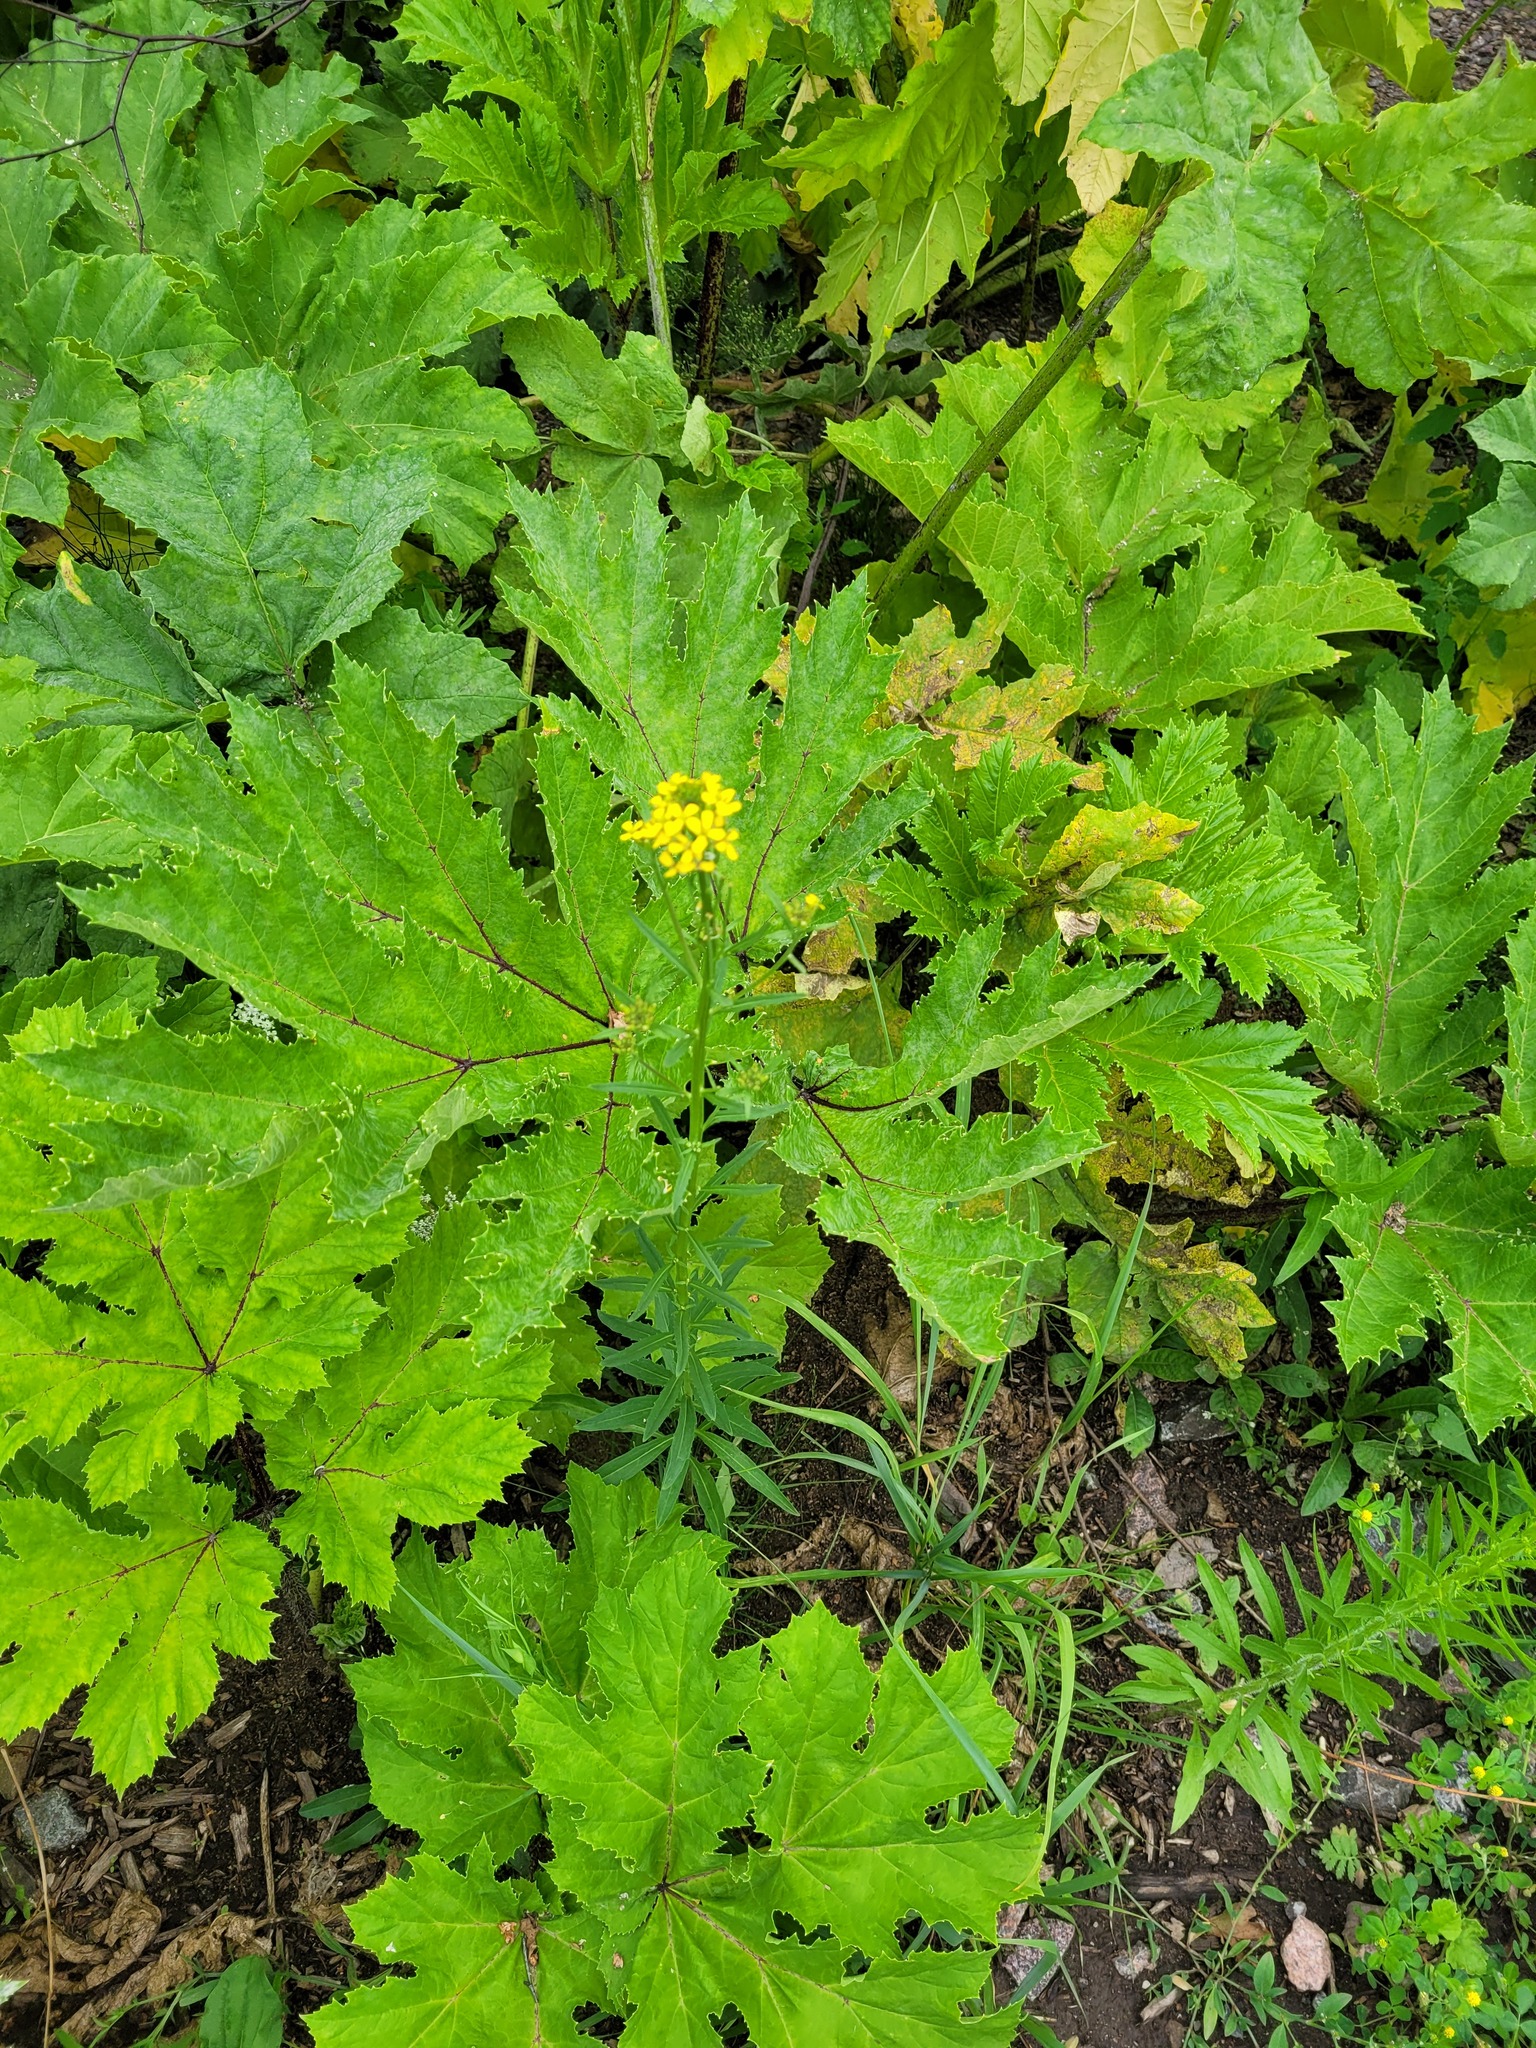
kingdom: Plantae
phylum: Tracheophyta
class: Magnoliopsida
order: Brassicales
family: Brassicaceae
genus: Erysimum
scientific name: Erysimum hieraciifolium
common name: European wallflower
